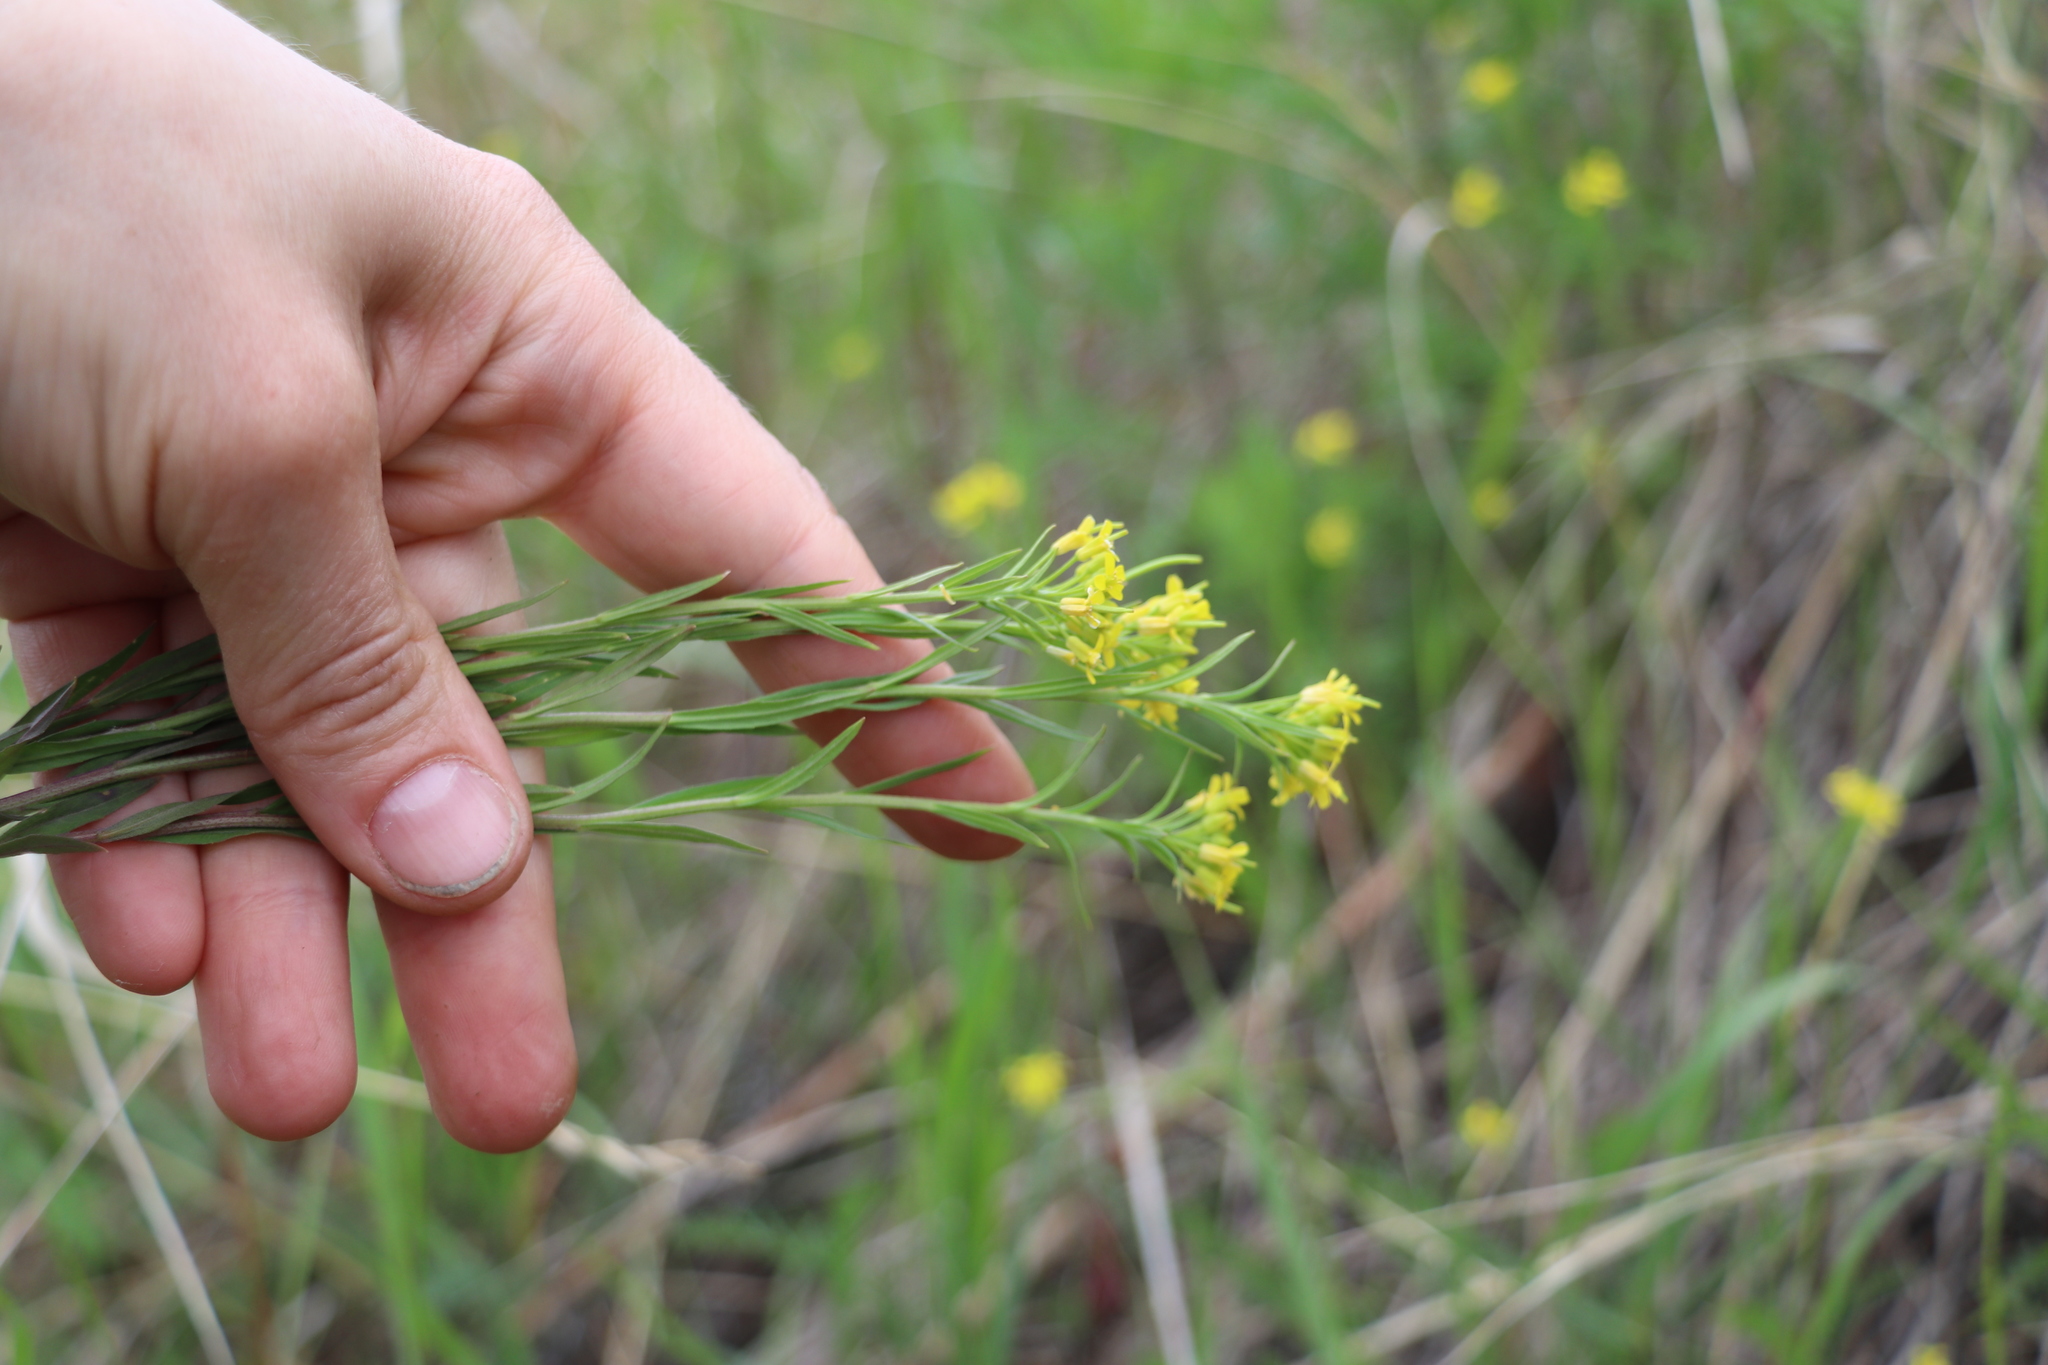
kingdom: Plantae
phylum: Tracheophyta
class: Magnoliopsida
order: Brassicales
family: Brassicaceae
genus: Erysimum
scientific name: Erysimum cheiranthoides
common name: Treacle mustard
